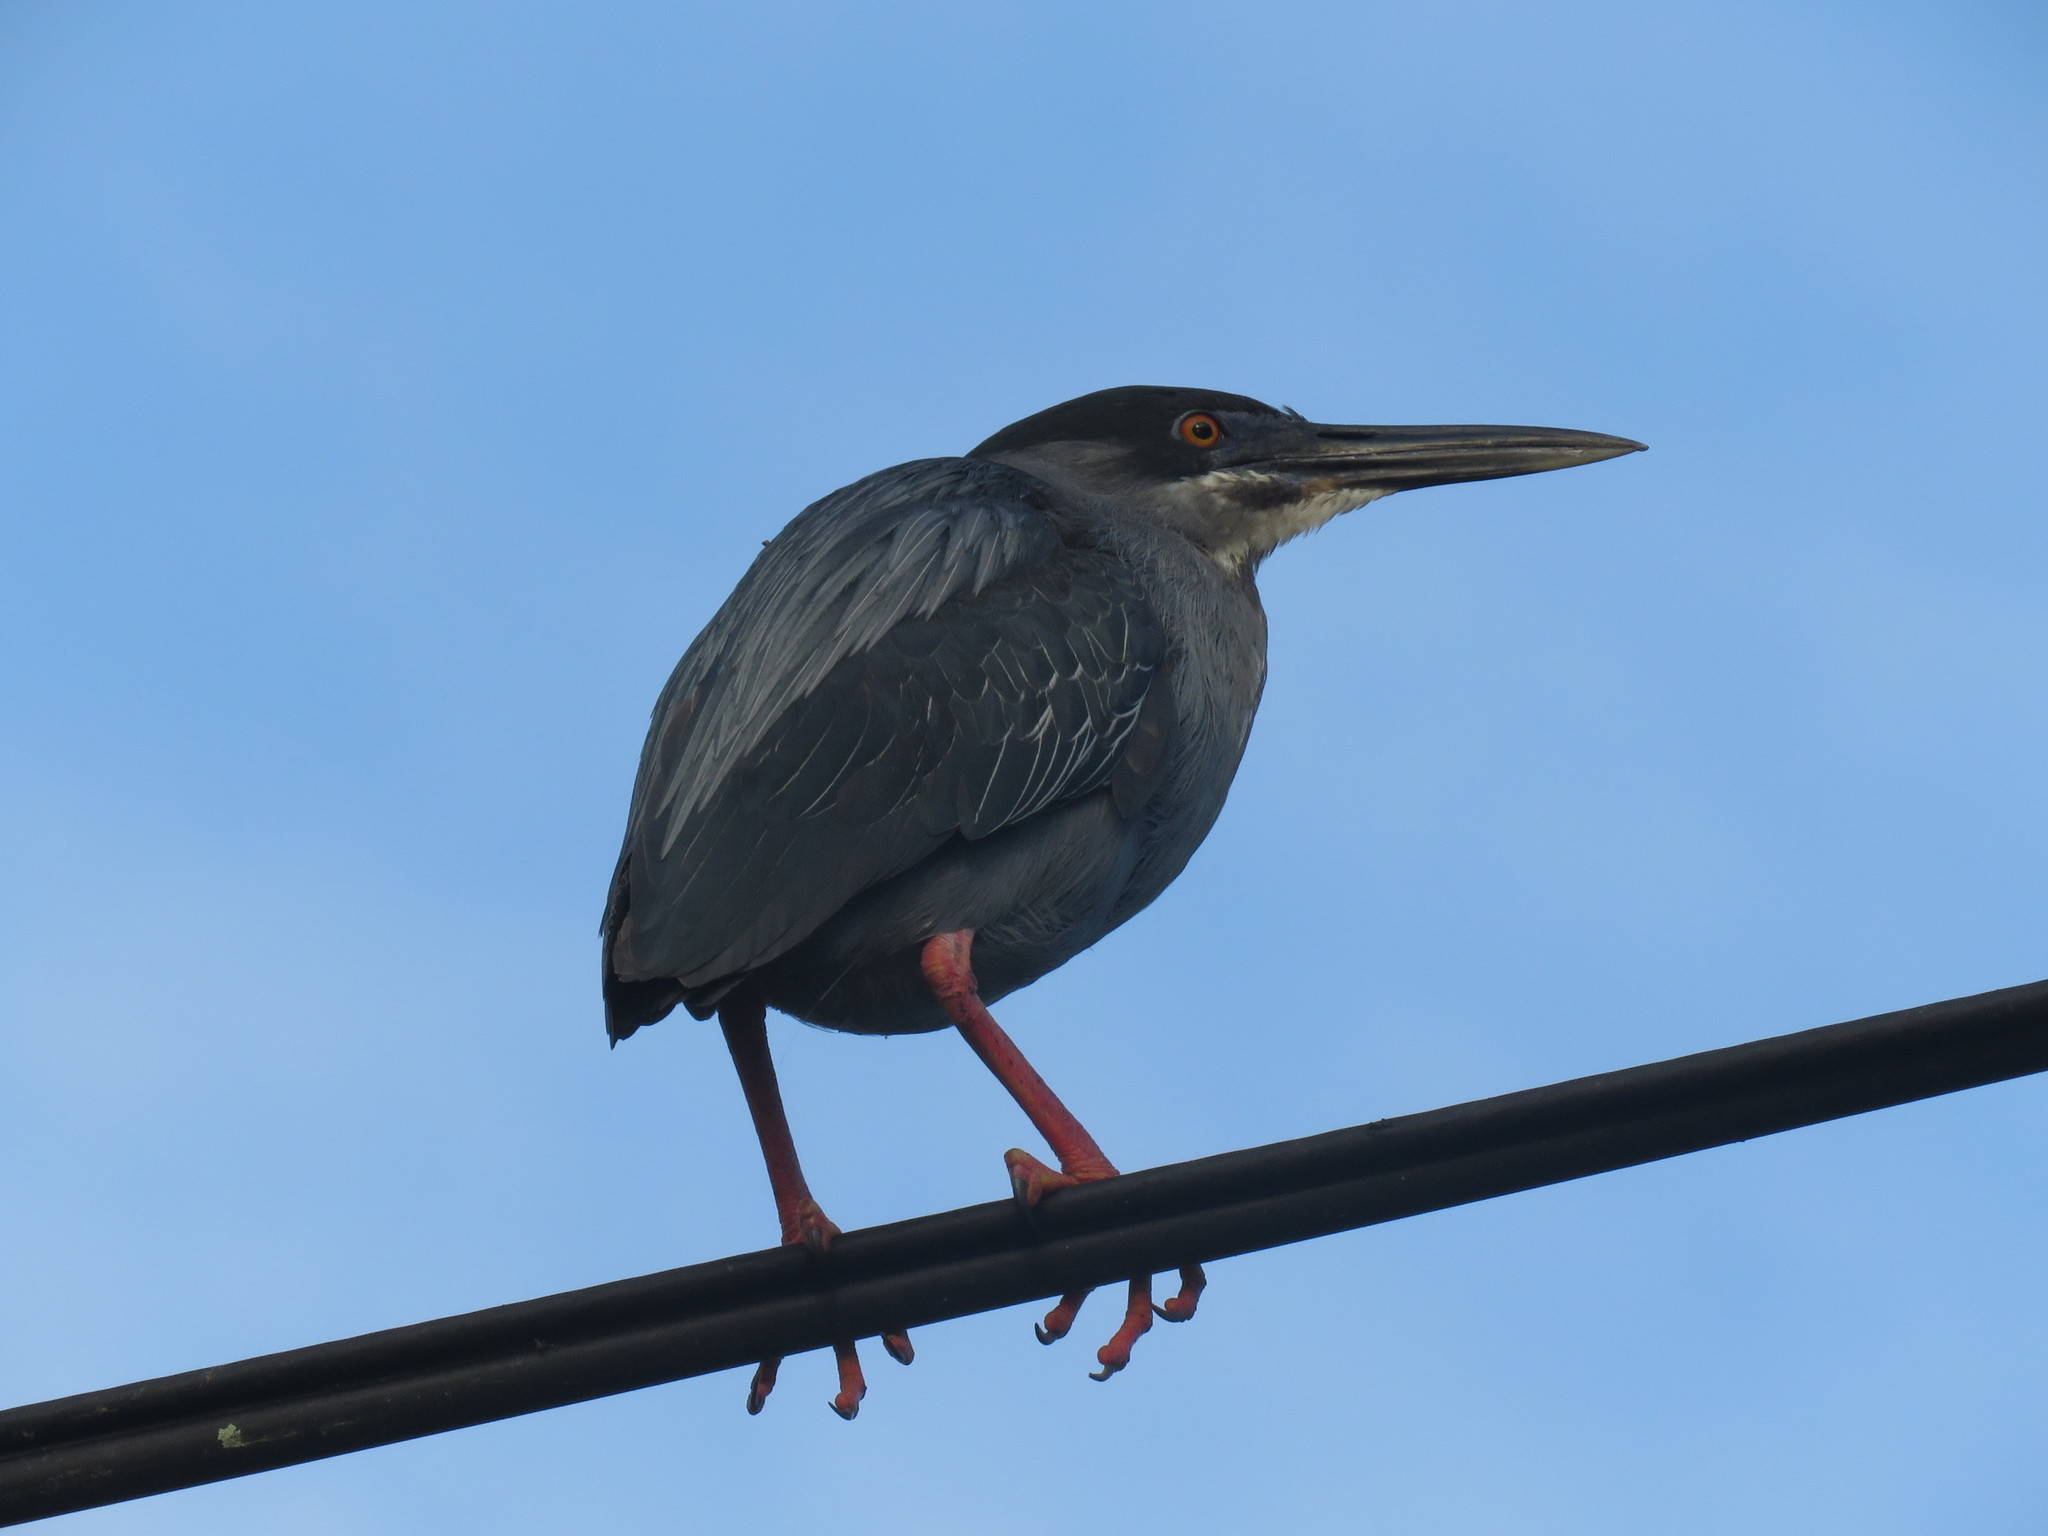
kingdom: Animalia
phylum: Chordata
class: Aves
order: Pelecaniformes
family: Ardeidae
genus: Butorides
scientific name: Butorides striata
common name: Striated heron
